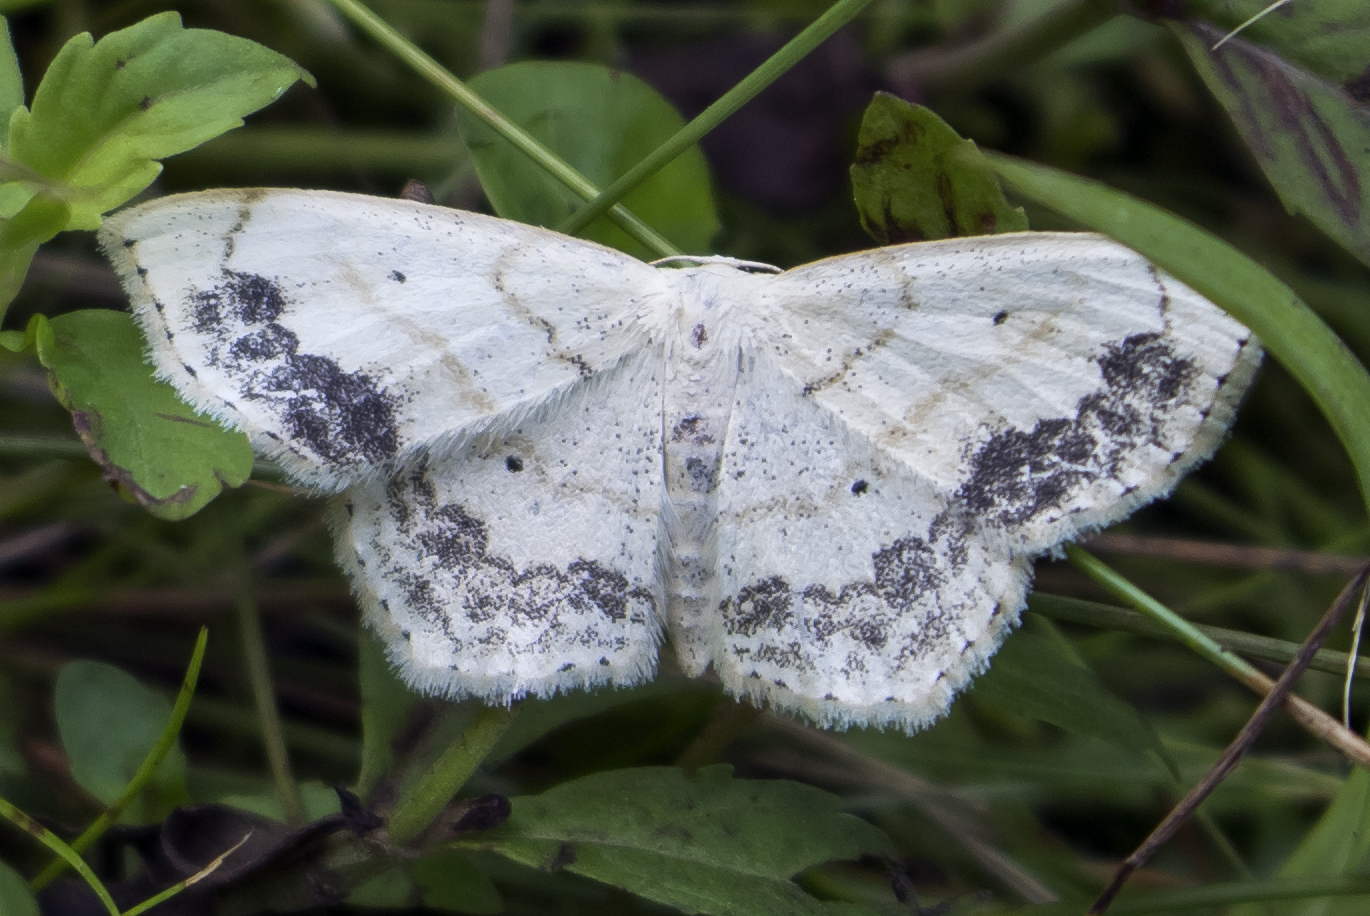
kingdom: Animalia
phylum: Arthropoda
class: Insecta
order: Lepidoptera
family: Geometridae
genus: Scopula
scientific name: Scopula limboundata
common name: Large lace border
